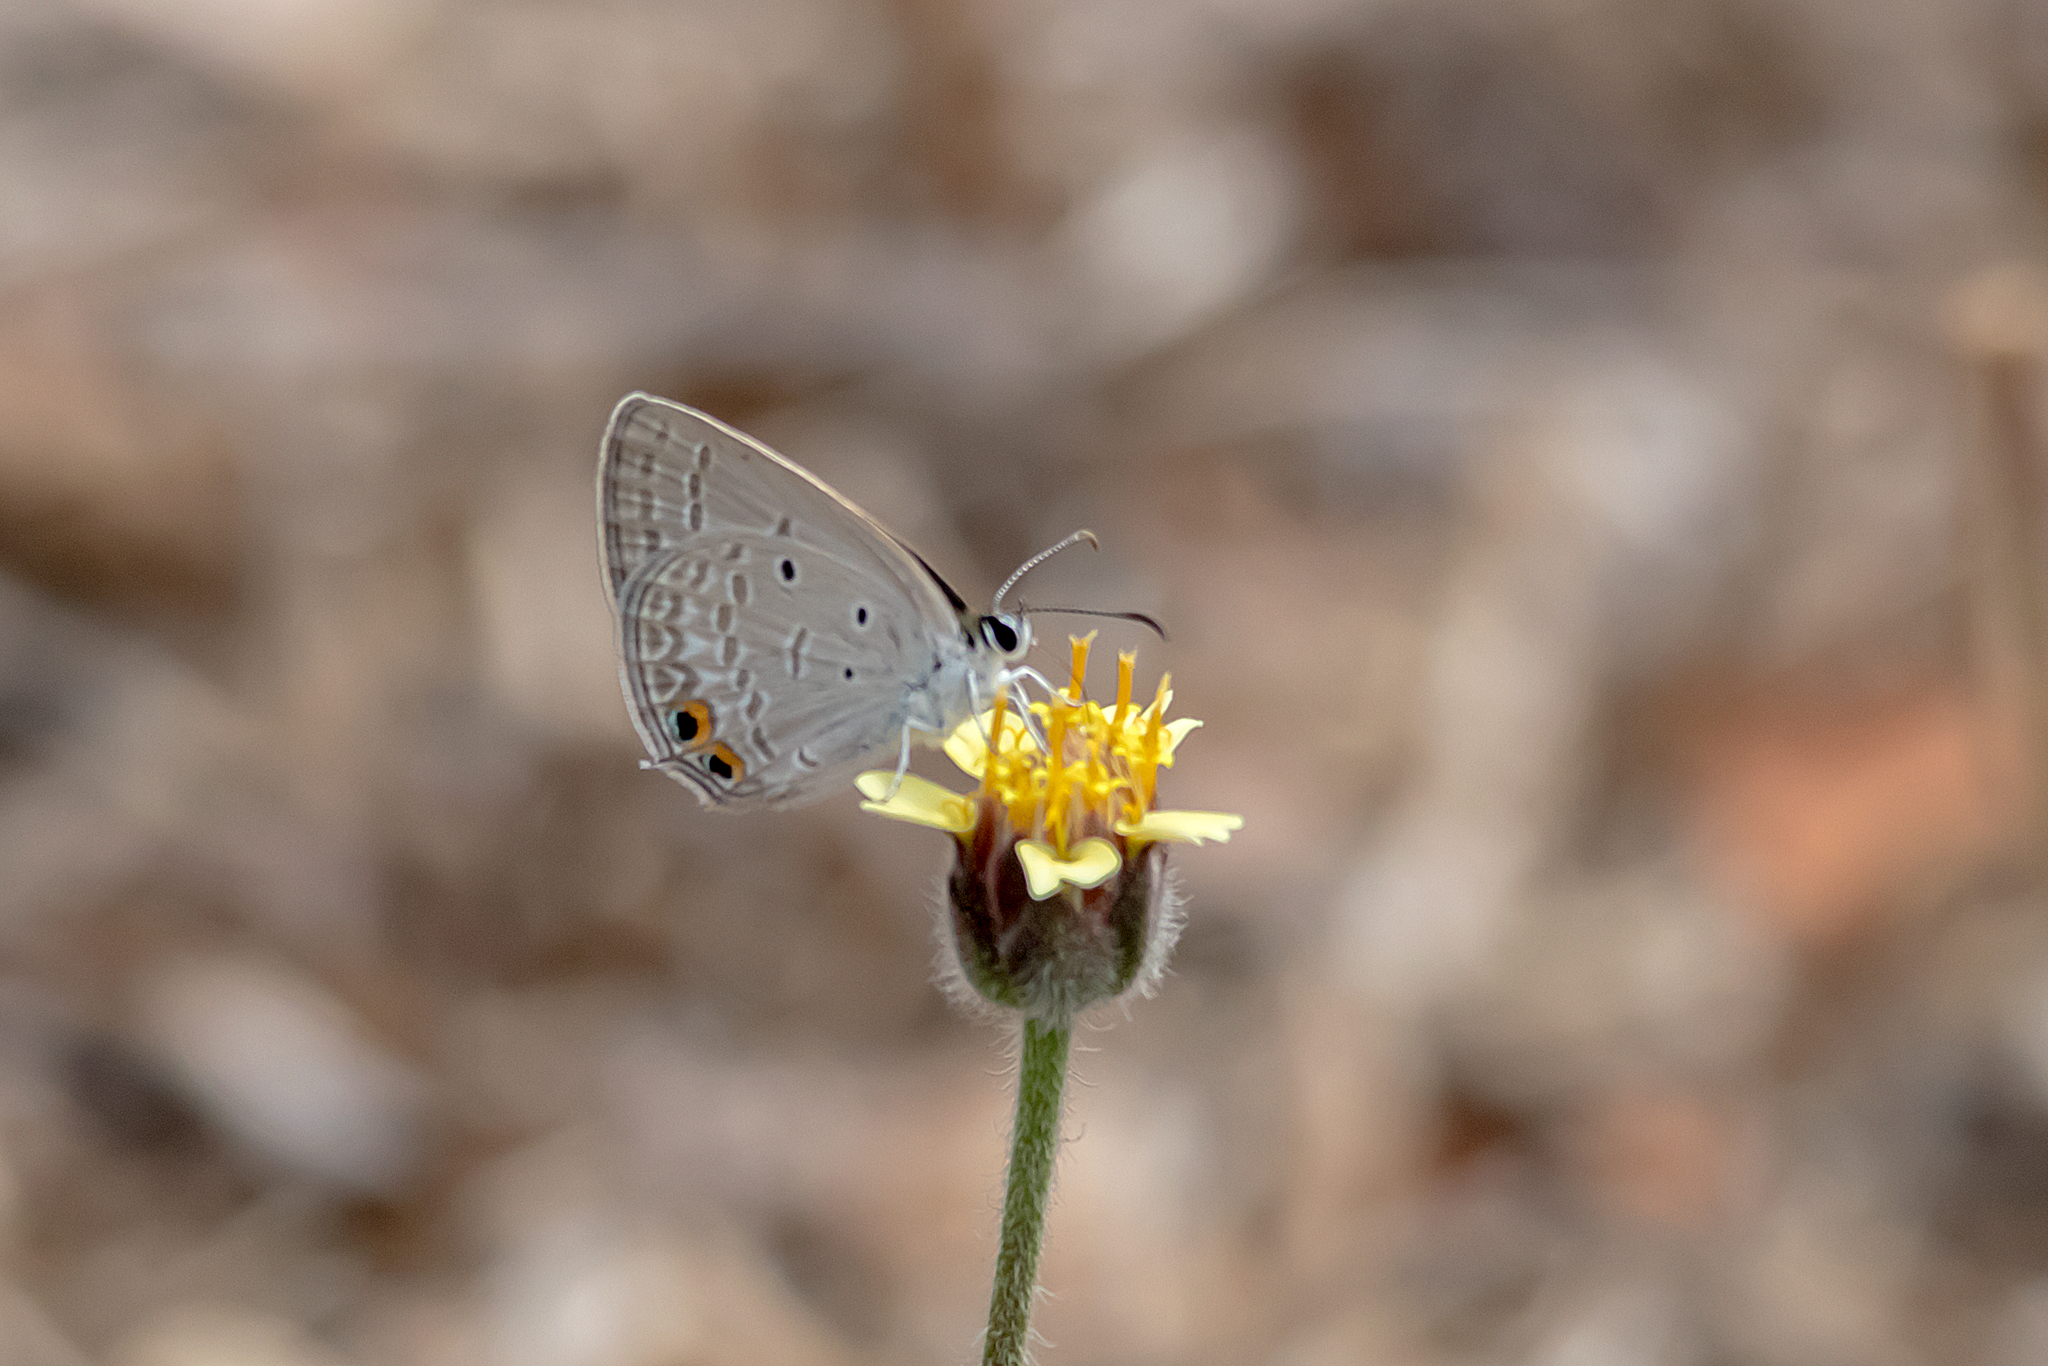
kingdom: Animalia
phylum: Arthropoda
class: Insecta
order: Lepidoptera
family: Lycaenidae
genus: Euchrysops
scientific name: Euchrysops cnejus
